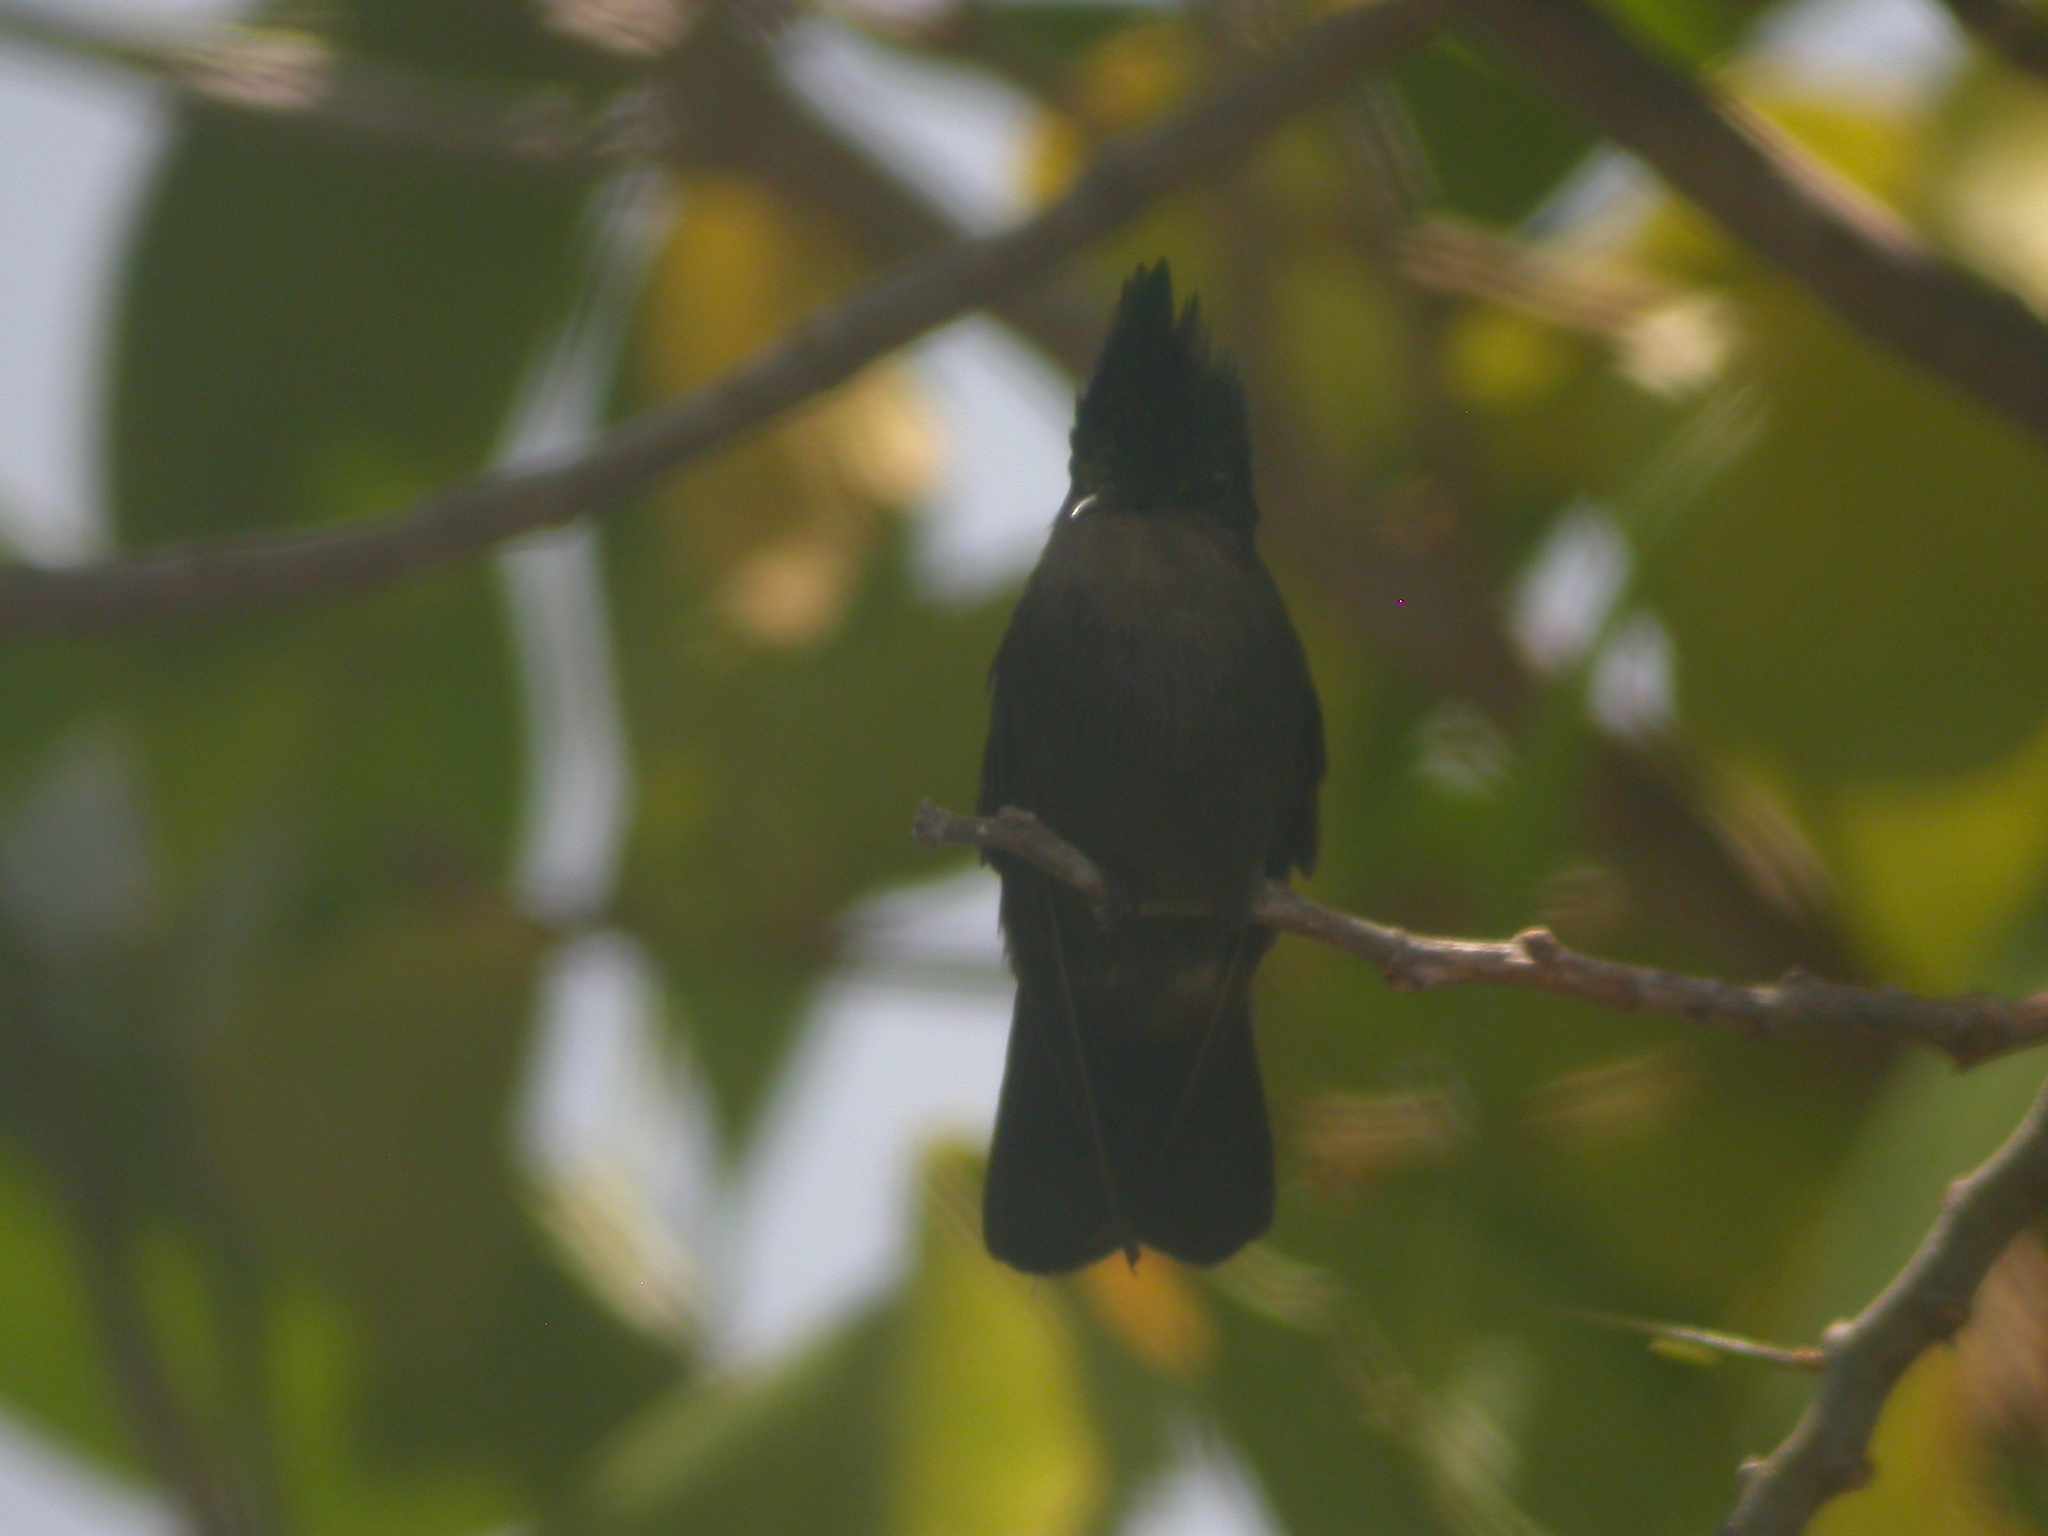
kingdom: Animalia
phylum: Chordata
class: Aves
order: Apodiformes
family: Trochilidae
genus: Orthorhyncus
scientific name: Orthorhyncus cristatus
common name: Antillean crested hummingbird
